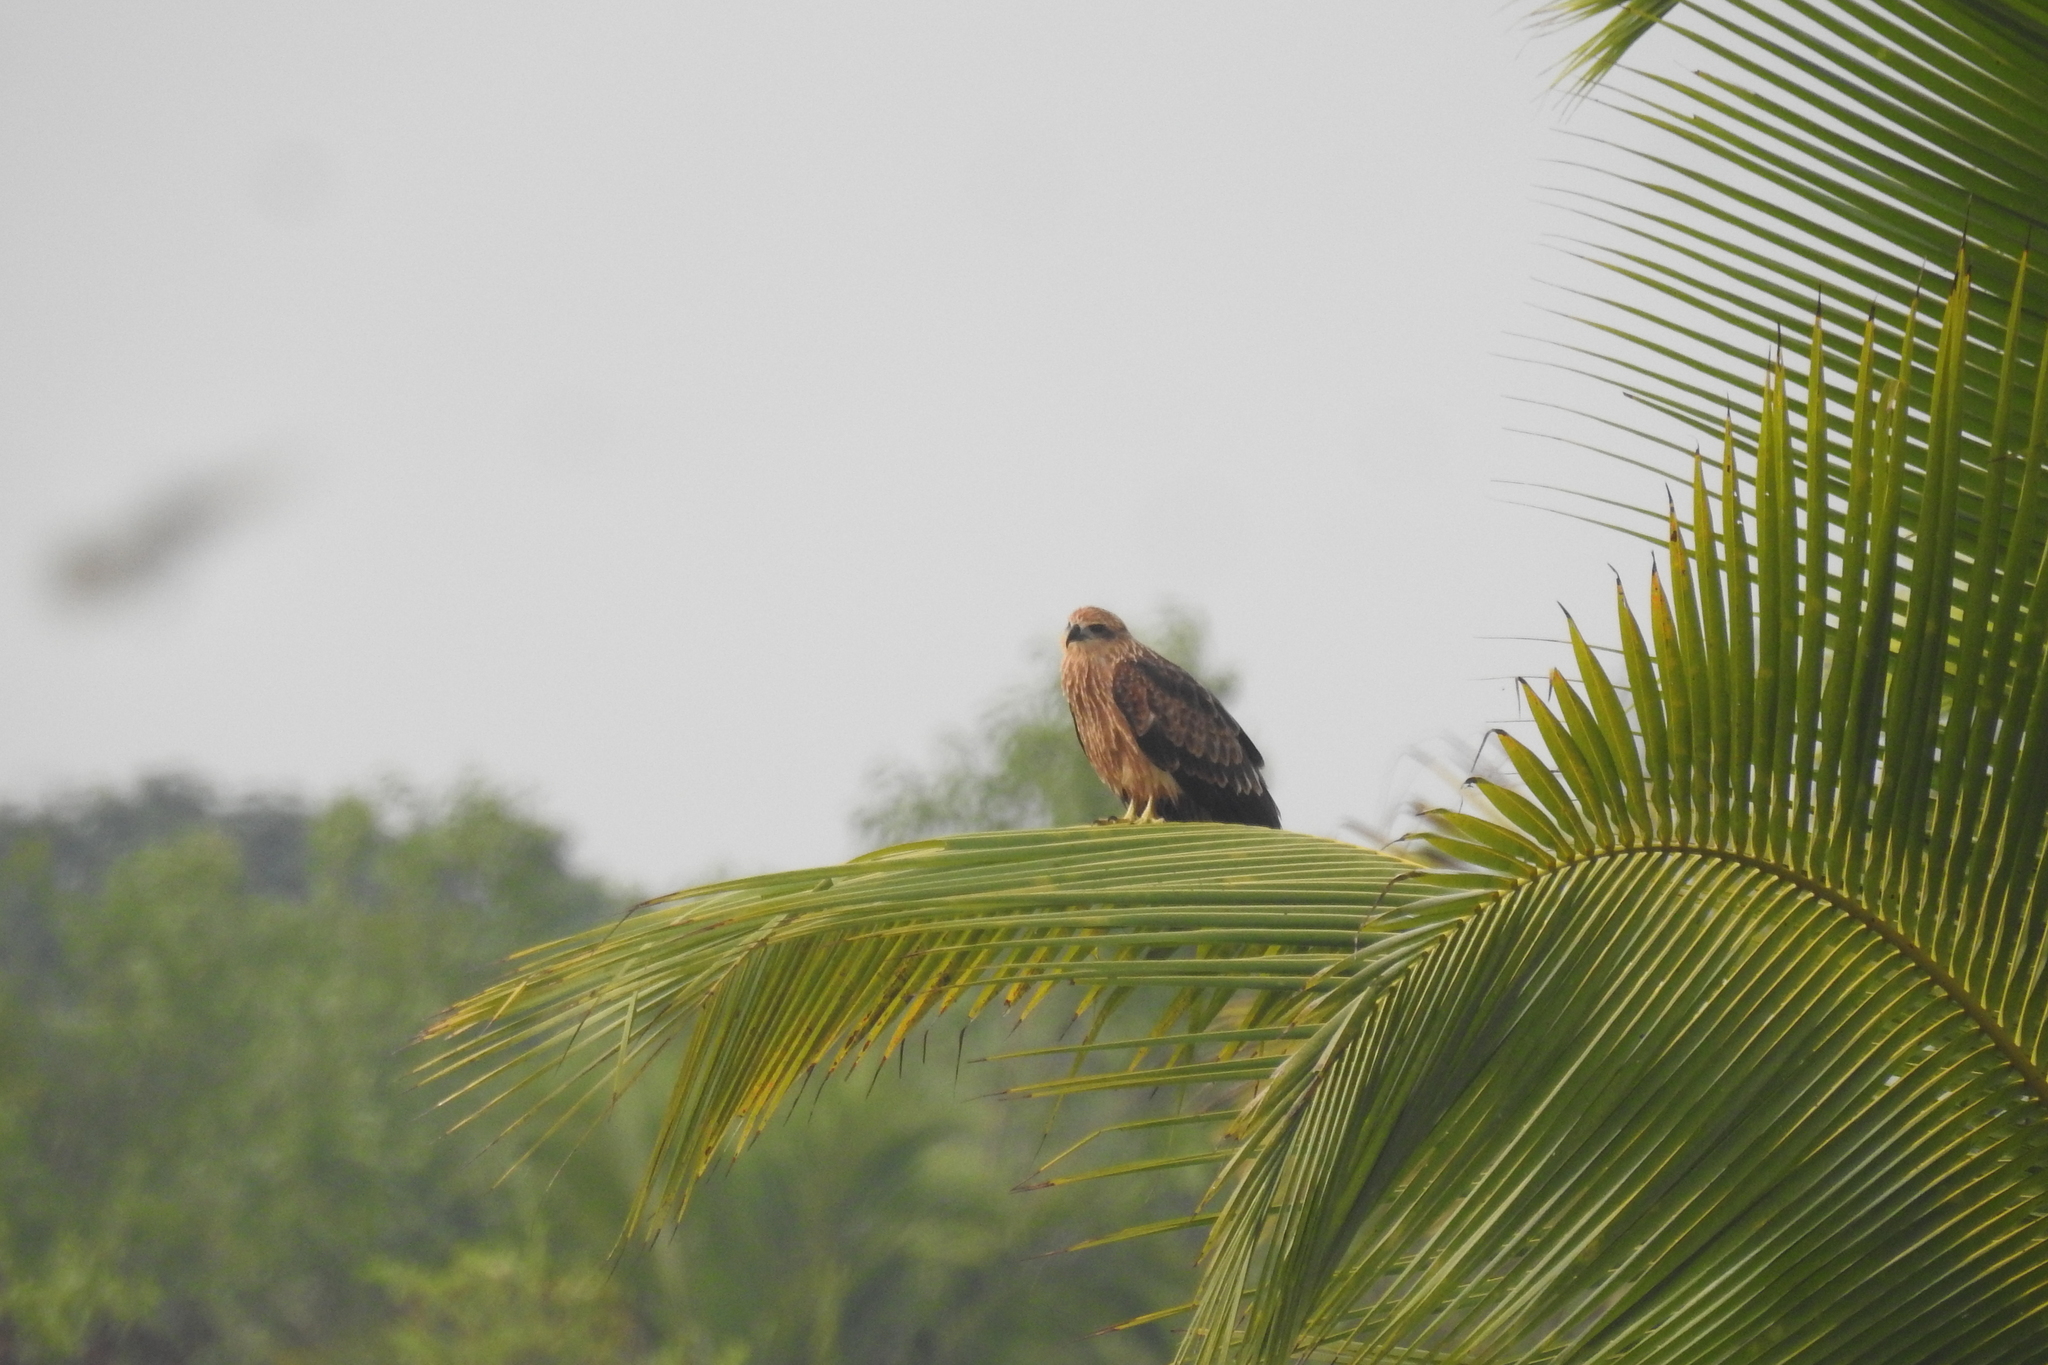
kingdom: Animalia
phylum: Chordata
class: Aves
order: Accipitriformes
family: Accipitridae
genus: Haliastur
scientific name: Haliastur indus
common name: Brahminy kite
